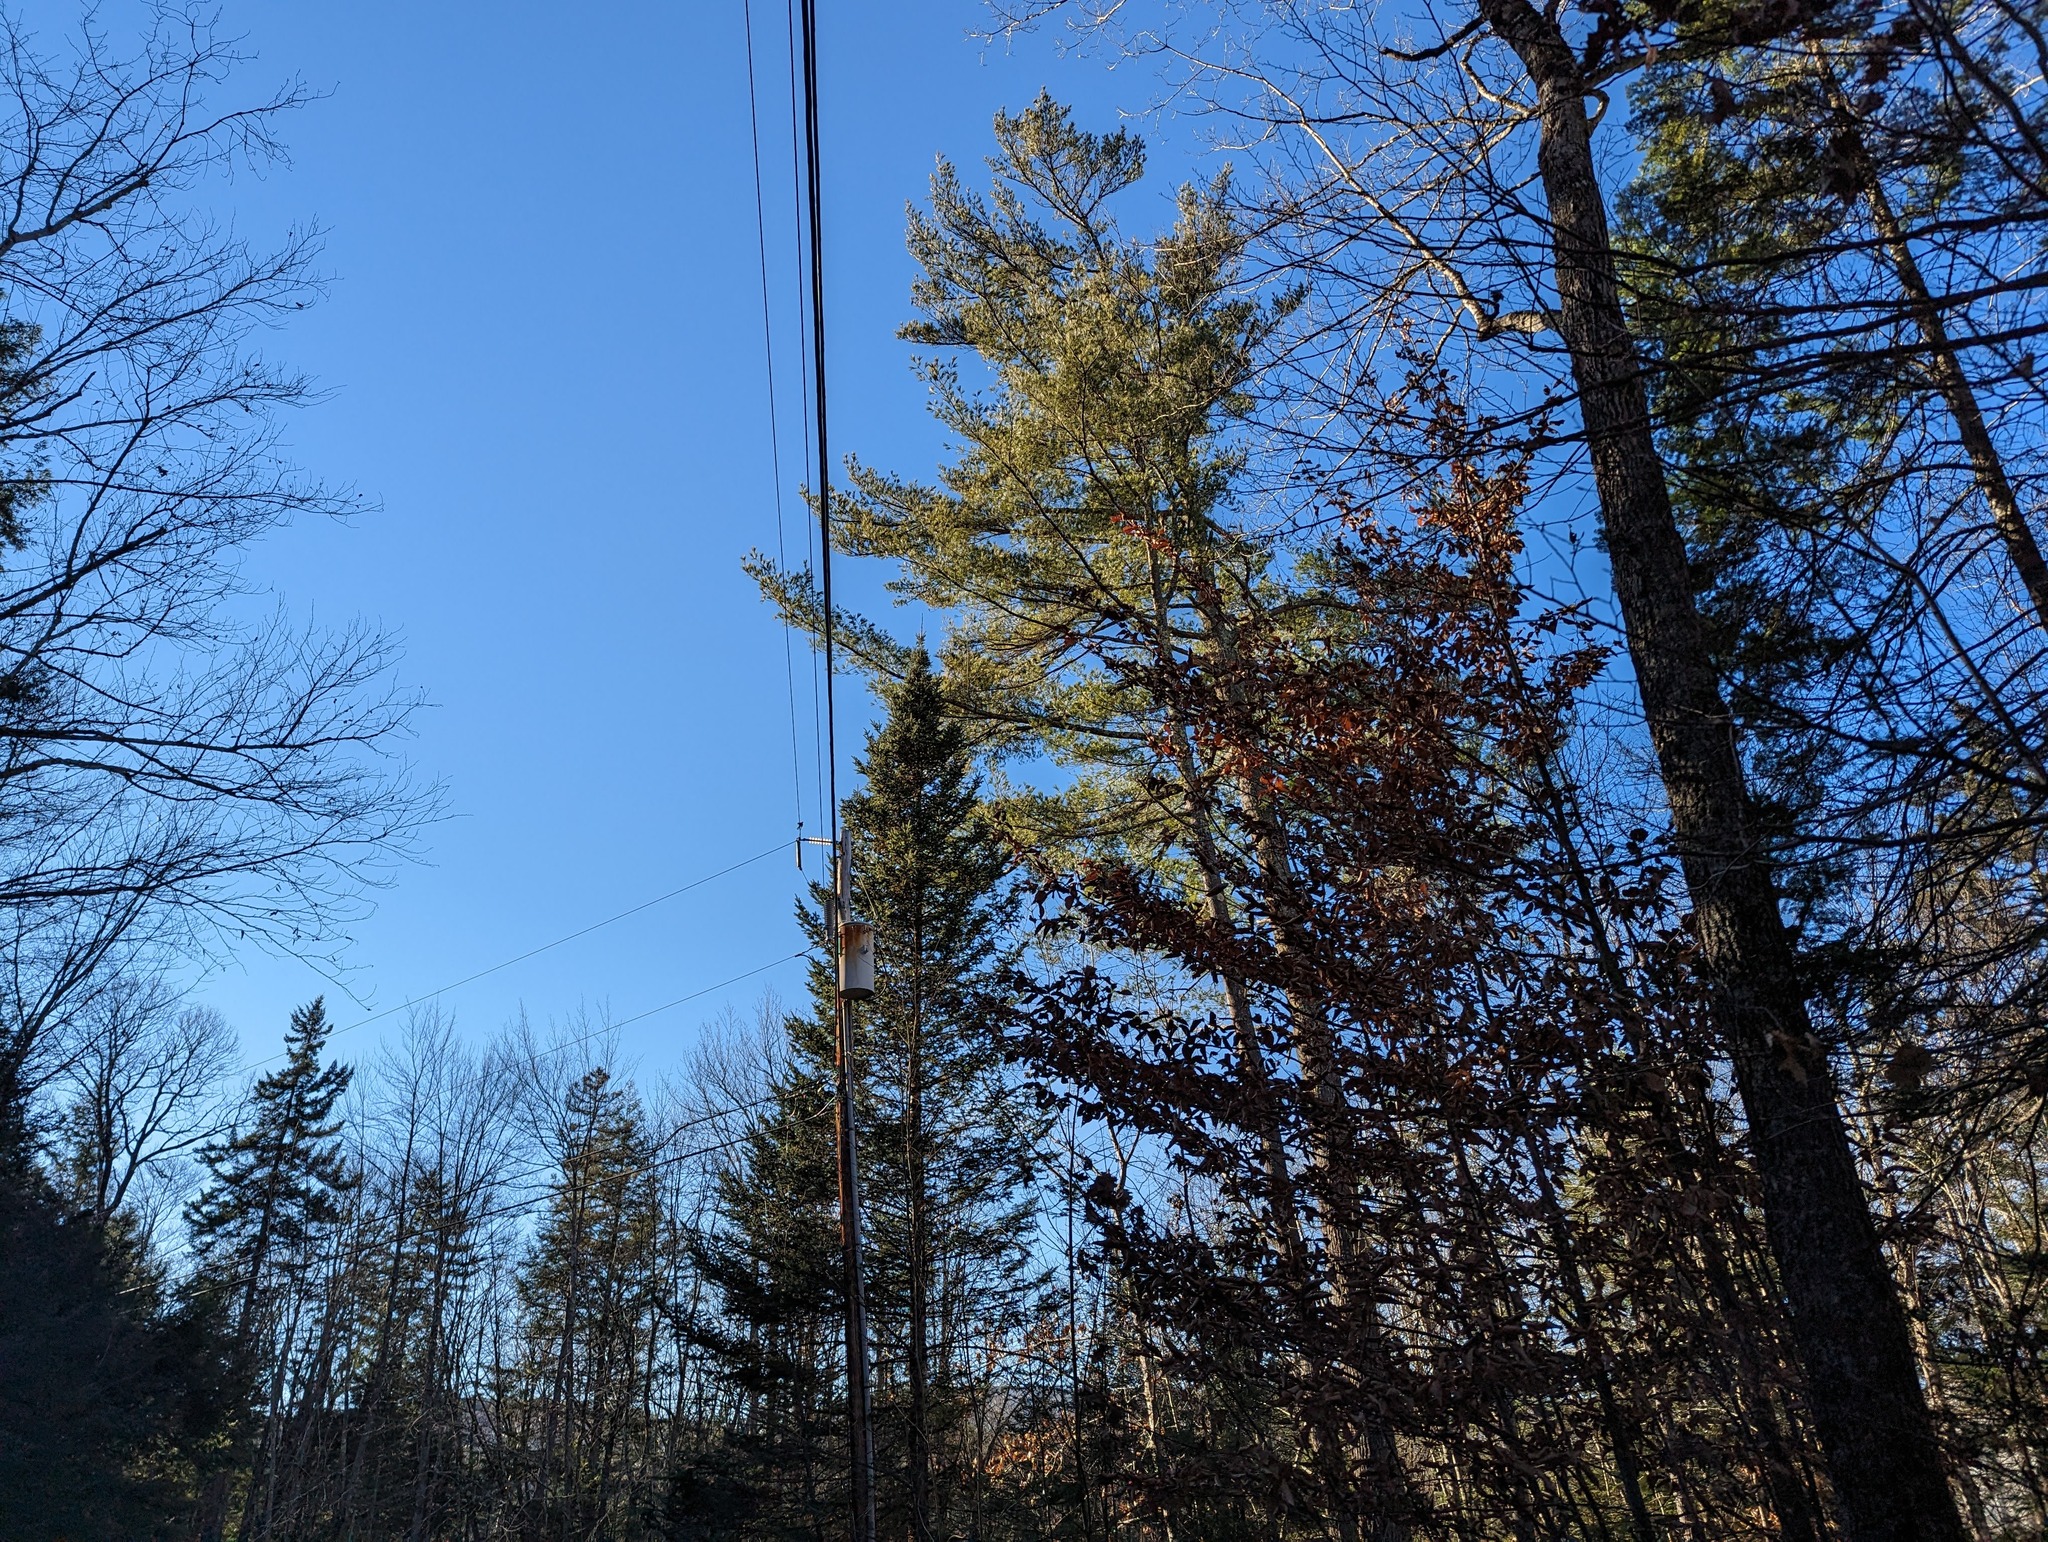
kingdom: Plantae
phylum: Tracheophyta
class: Pinopsida
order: Pinales
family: Pinaceae
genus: Pinus
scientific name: Pinus strobus
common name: Weymouth pine
